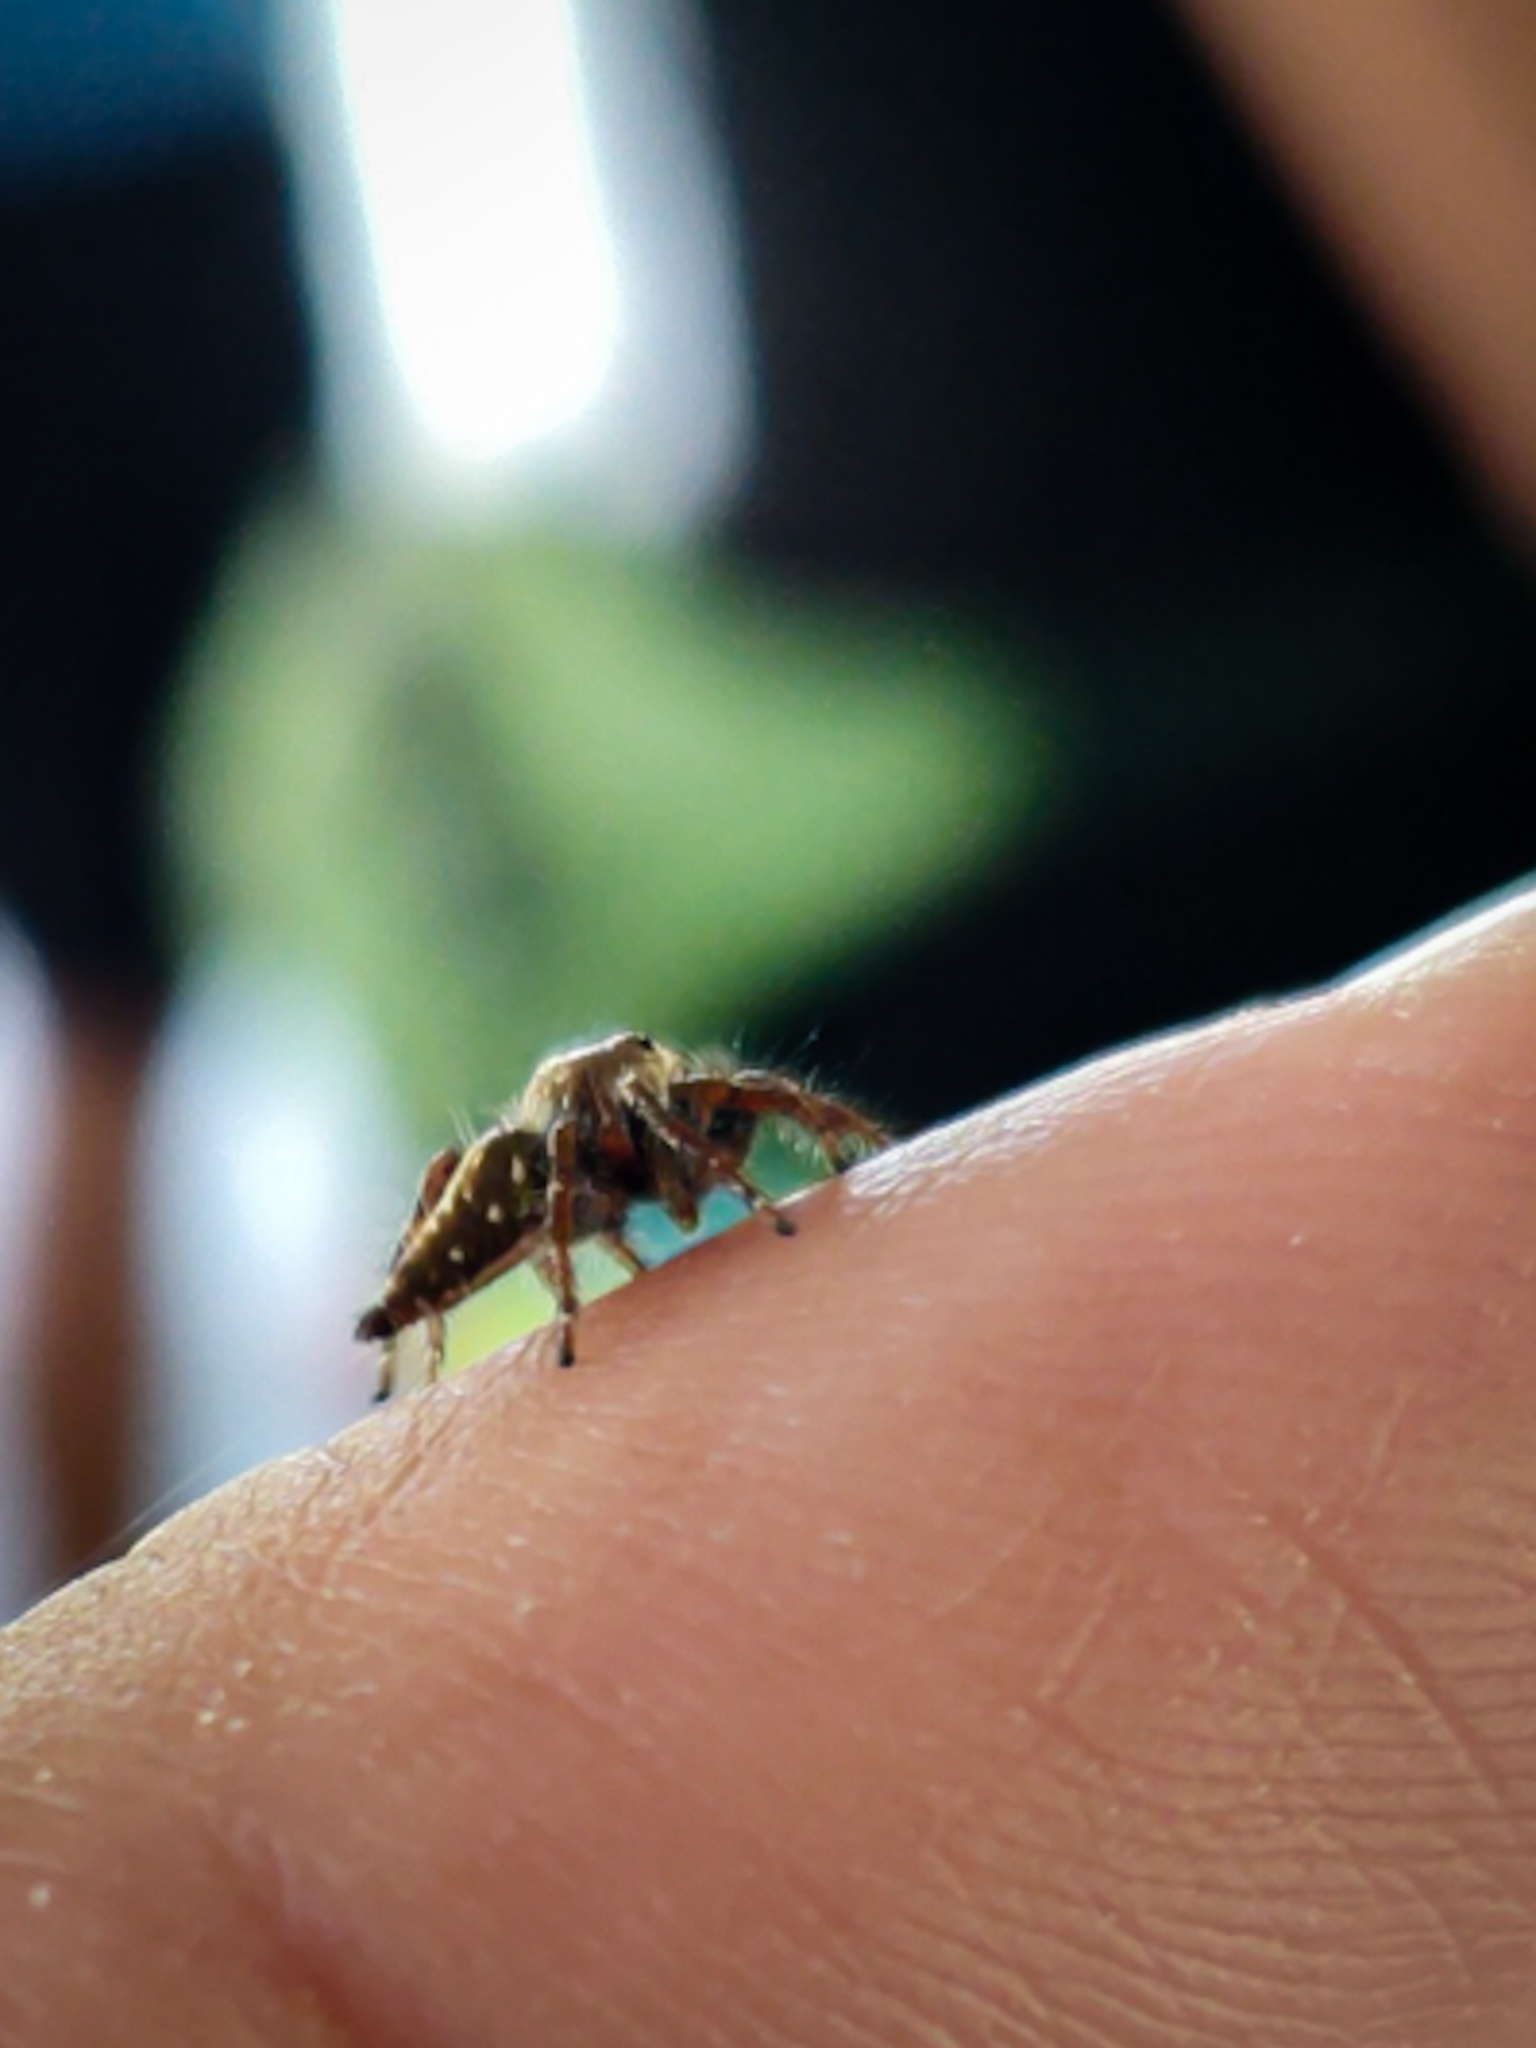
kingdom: Animalia
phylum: Arthropoda
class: Arachnida
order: Araneae
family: Salticidae
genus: Hyllus
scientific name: Hyllus semicupreus
